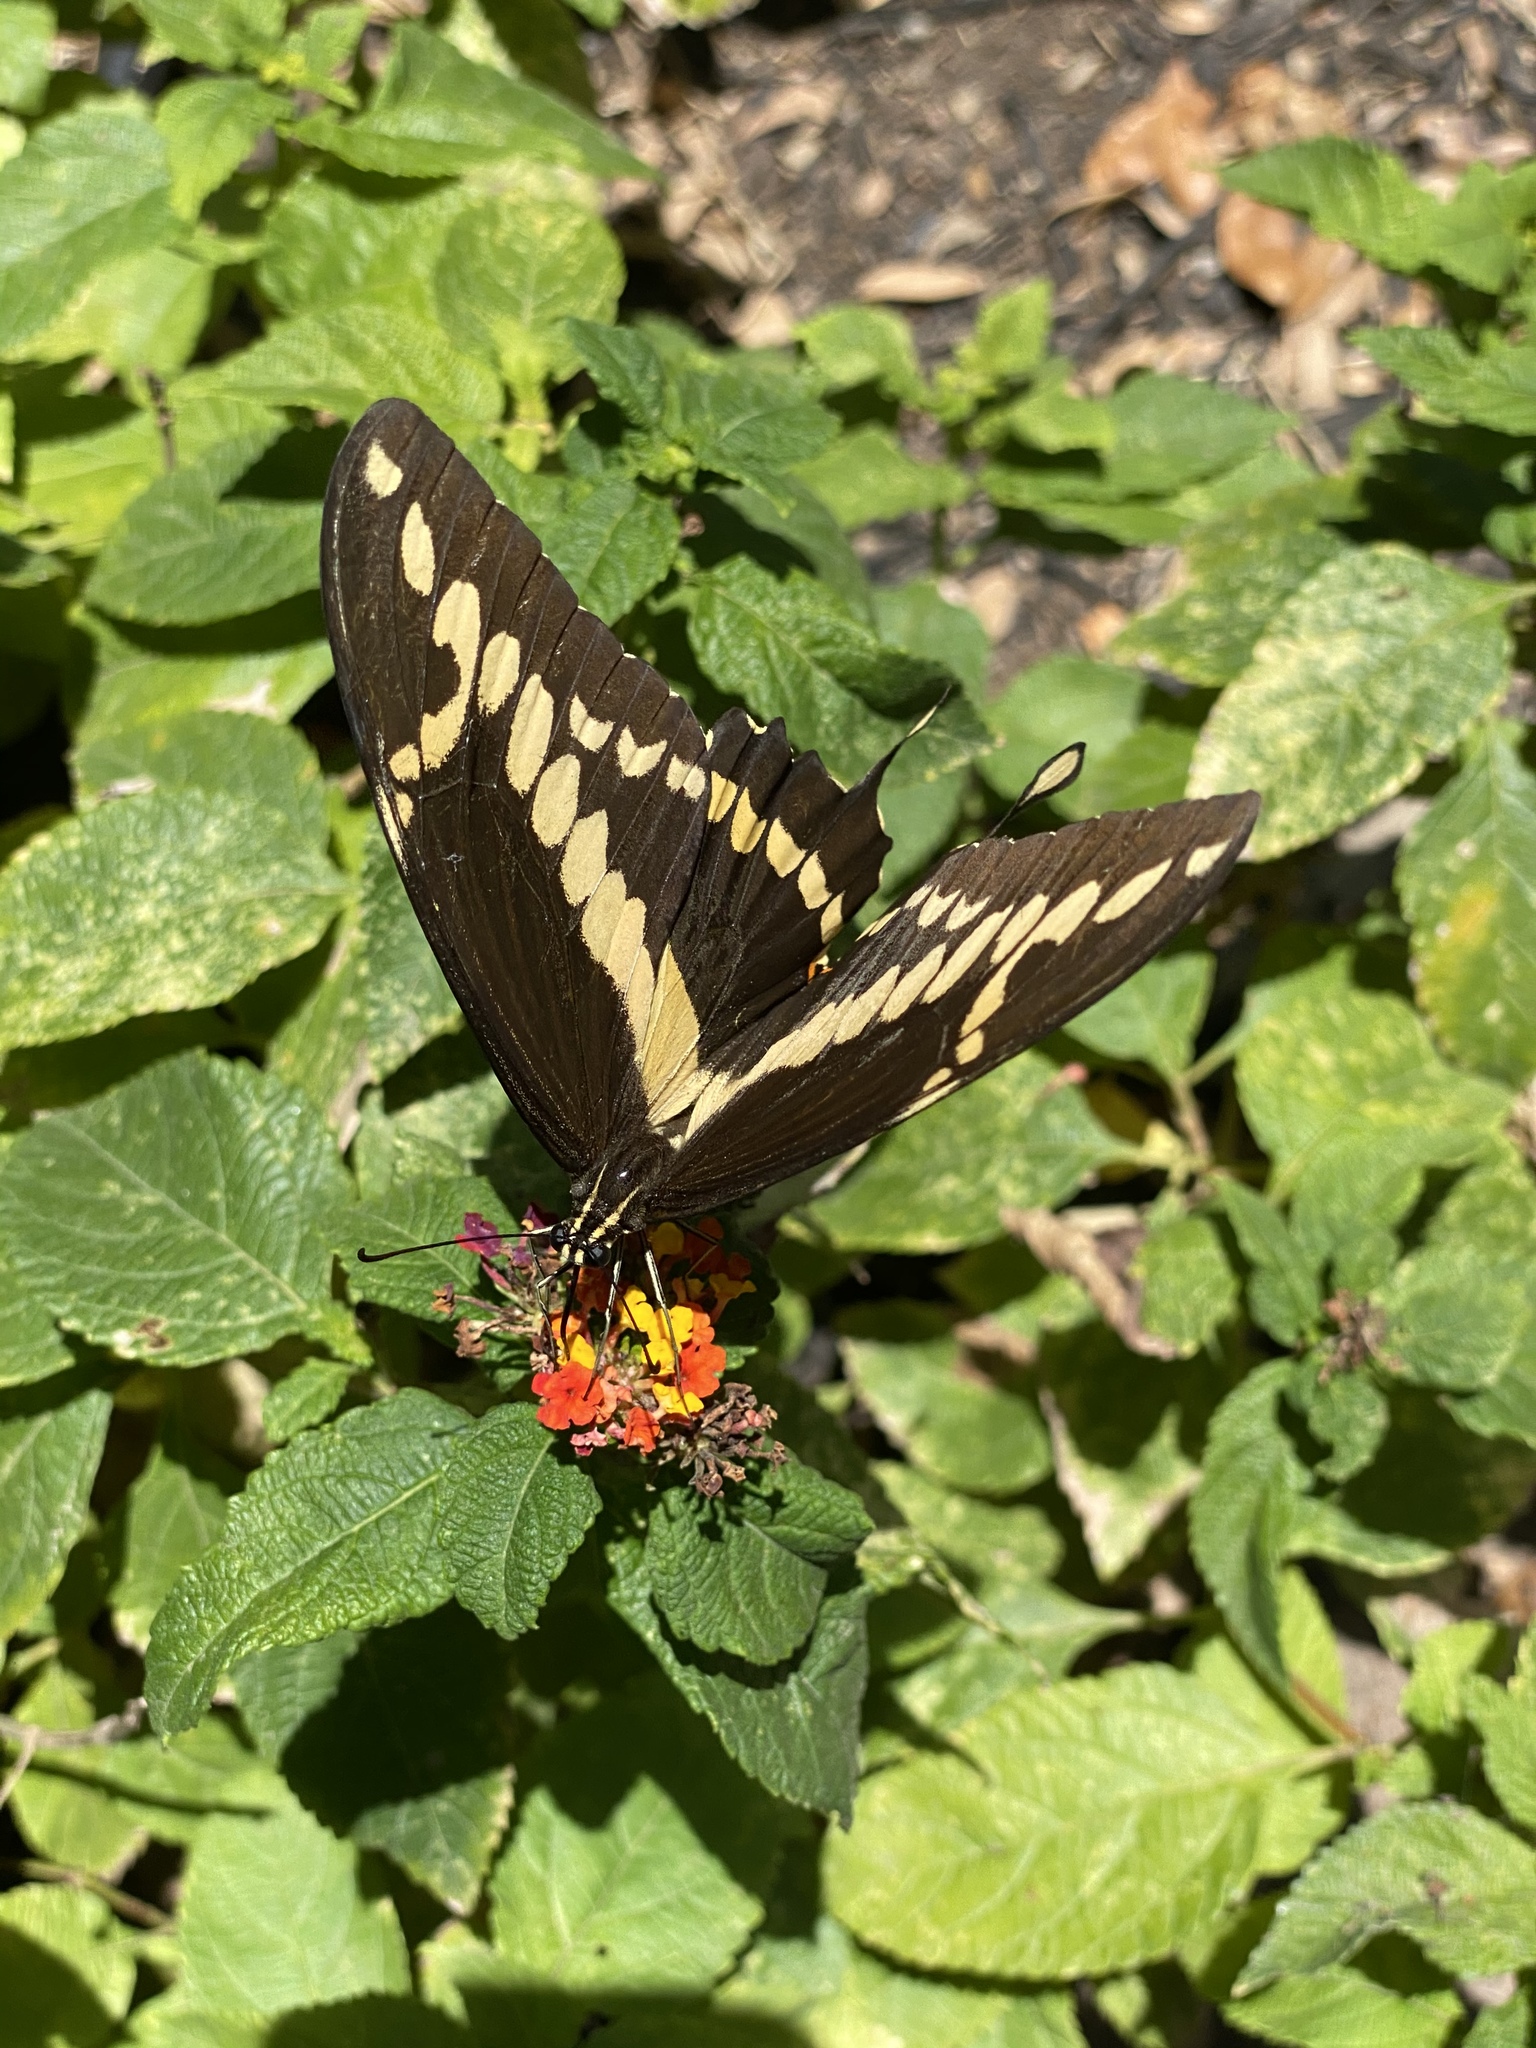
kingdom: Animalia
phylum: Arthropoda
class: Insecta
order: Lepidoptera
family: Papilionidae
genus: Papilio
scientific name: Papilio rumiko
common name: Western giant swallowtail
